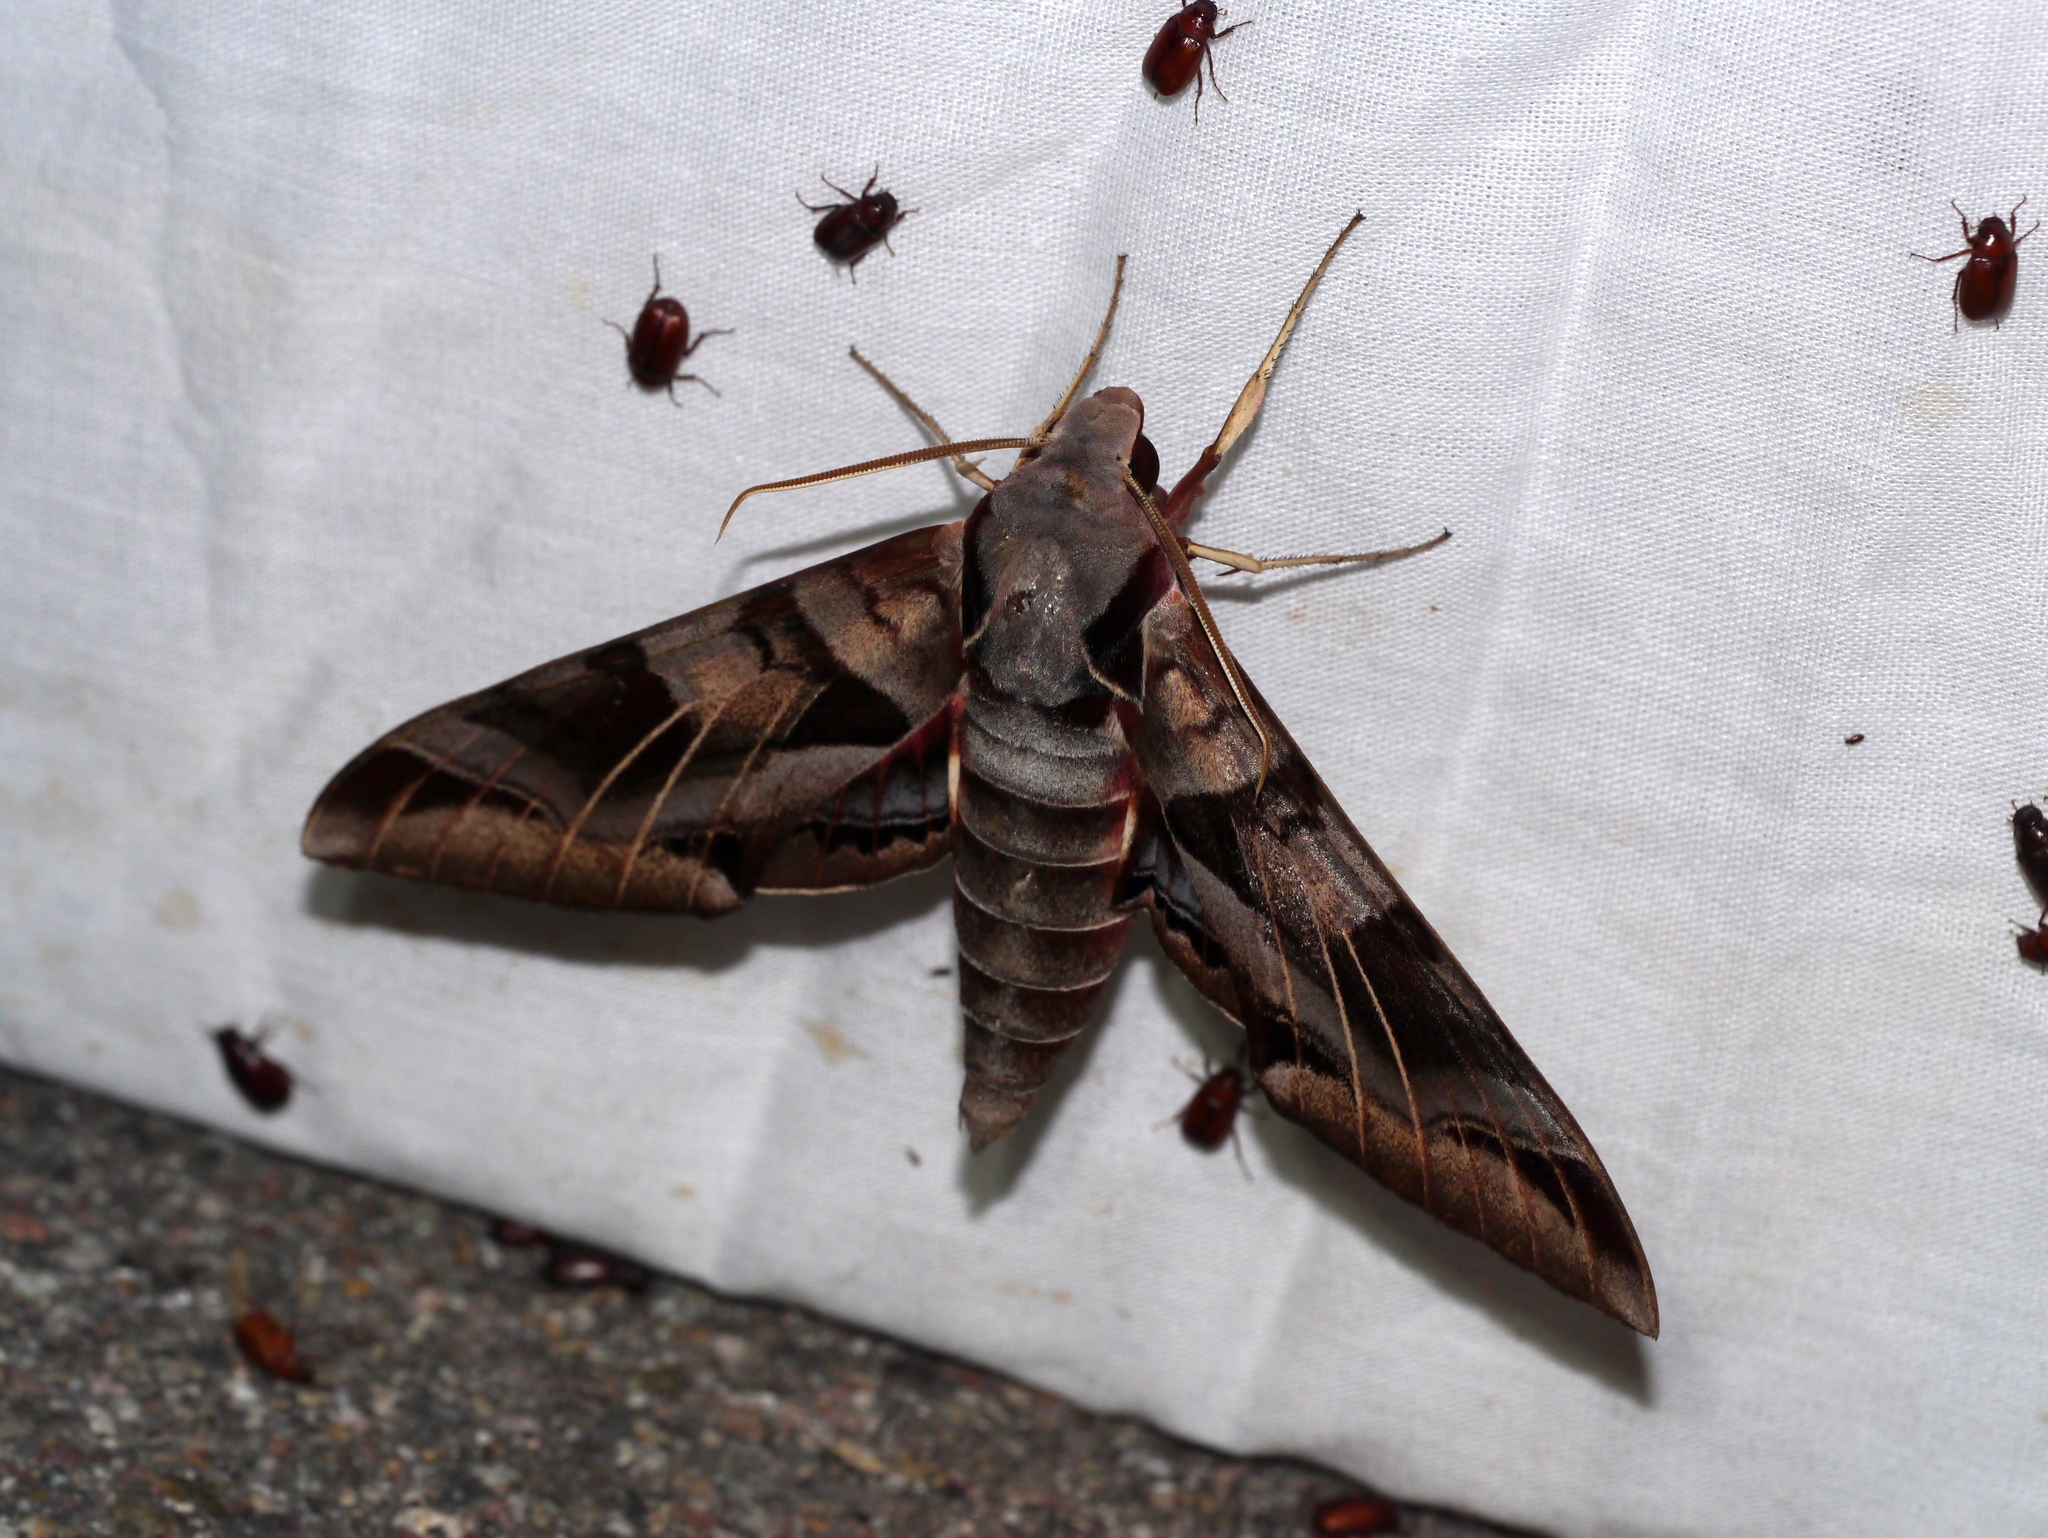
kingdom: Animalia
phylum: Arthropoda
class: Insecta
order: Lepidoptera
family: Sphingidae
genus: Eumorpha
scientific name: Eumorpha typhon
